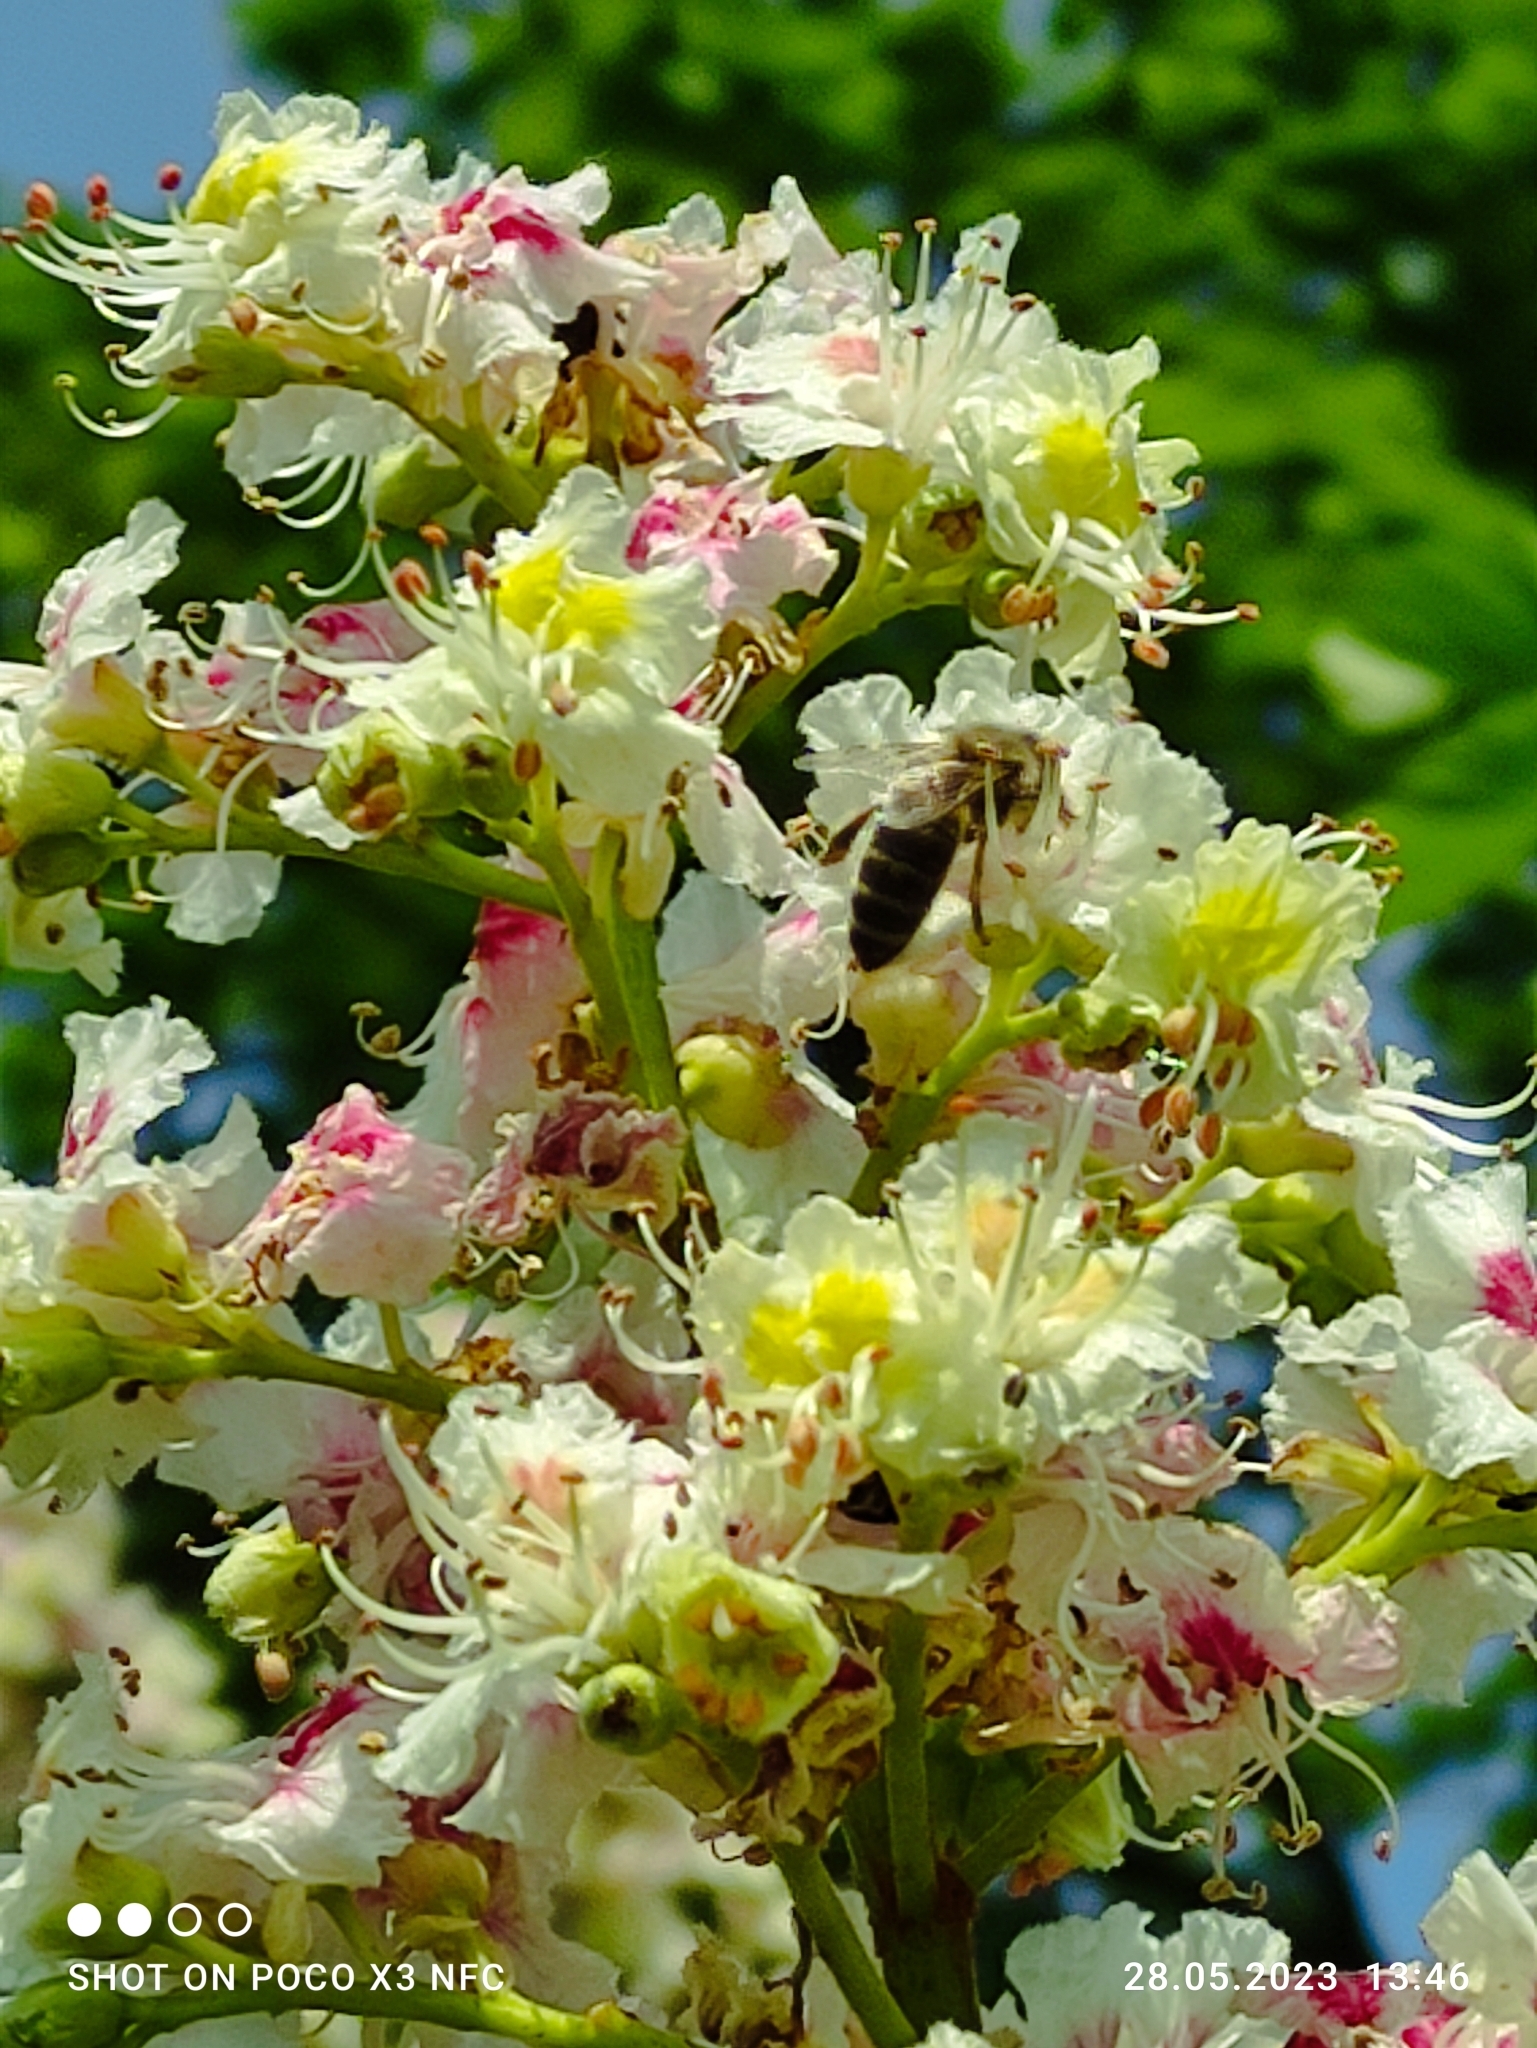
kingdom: Plantae
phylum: Tracheophyta
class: Magnoliopsida
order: Sapindales
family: Sapindaceae
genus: Aesculus
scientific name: Aesculus hippocastanum
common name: Horse-chestnut
